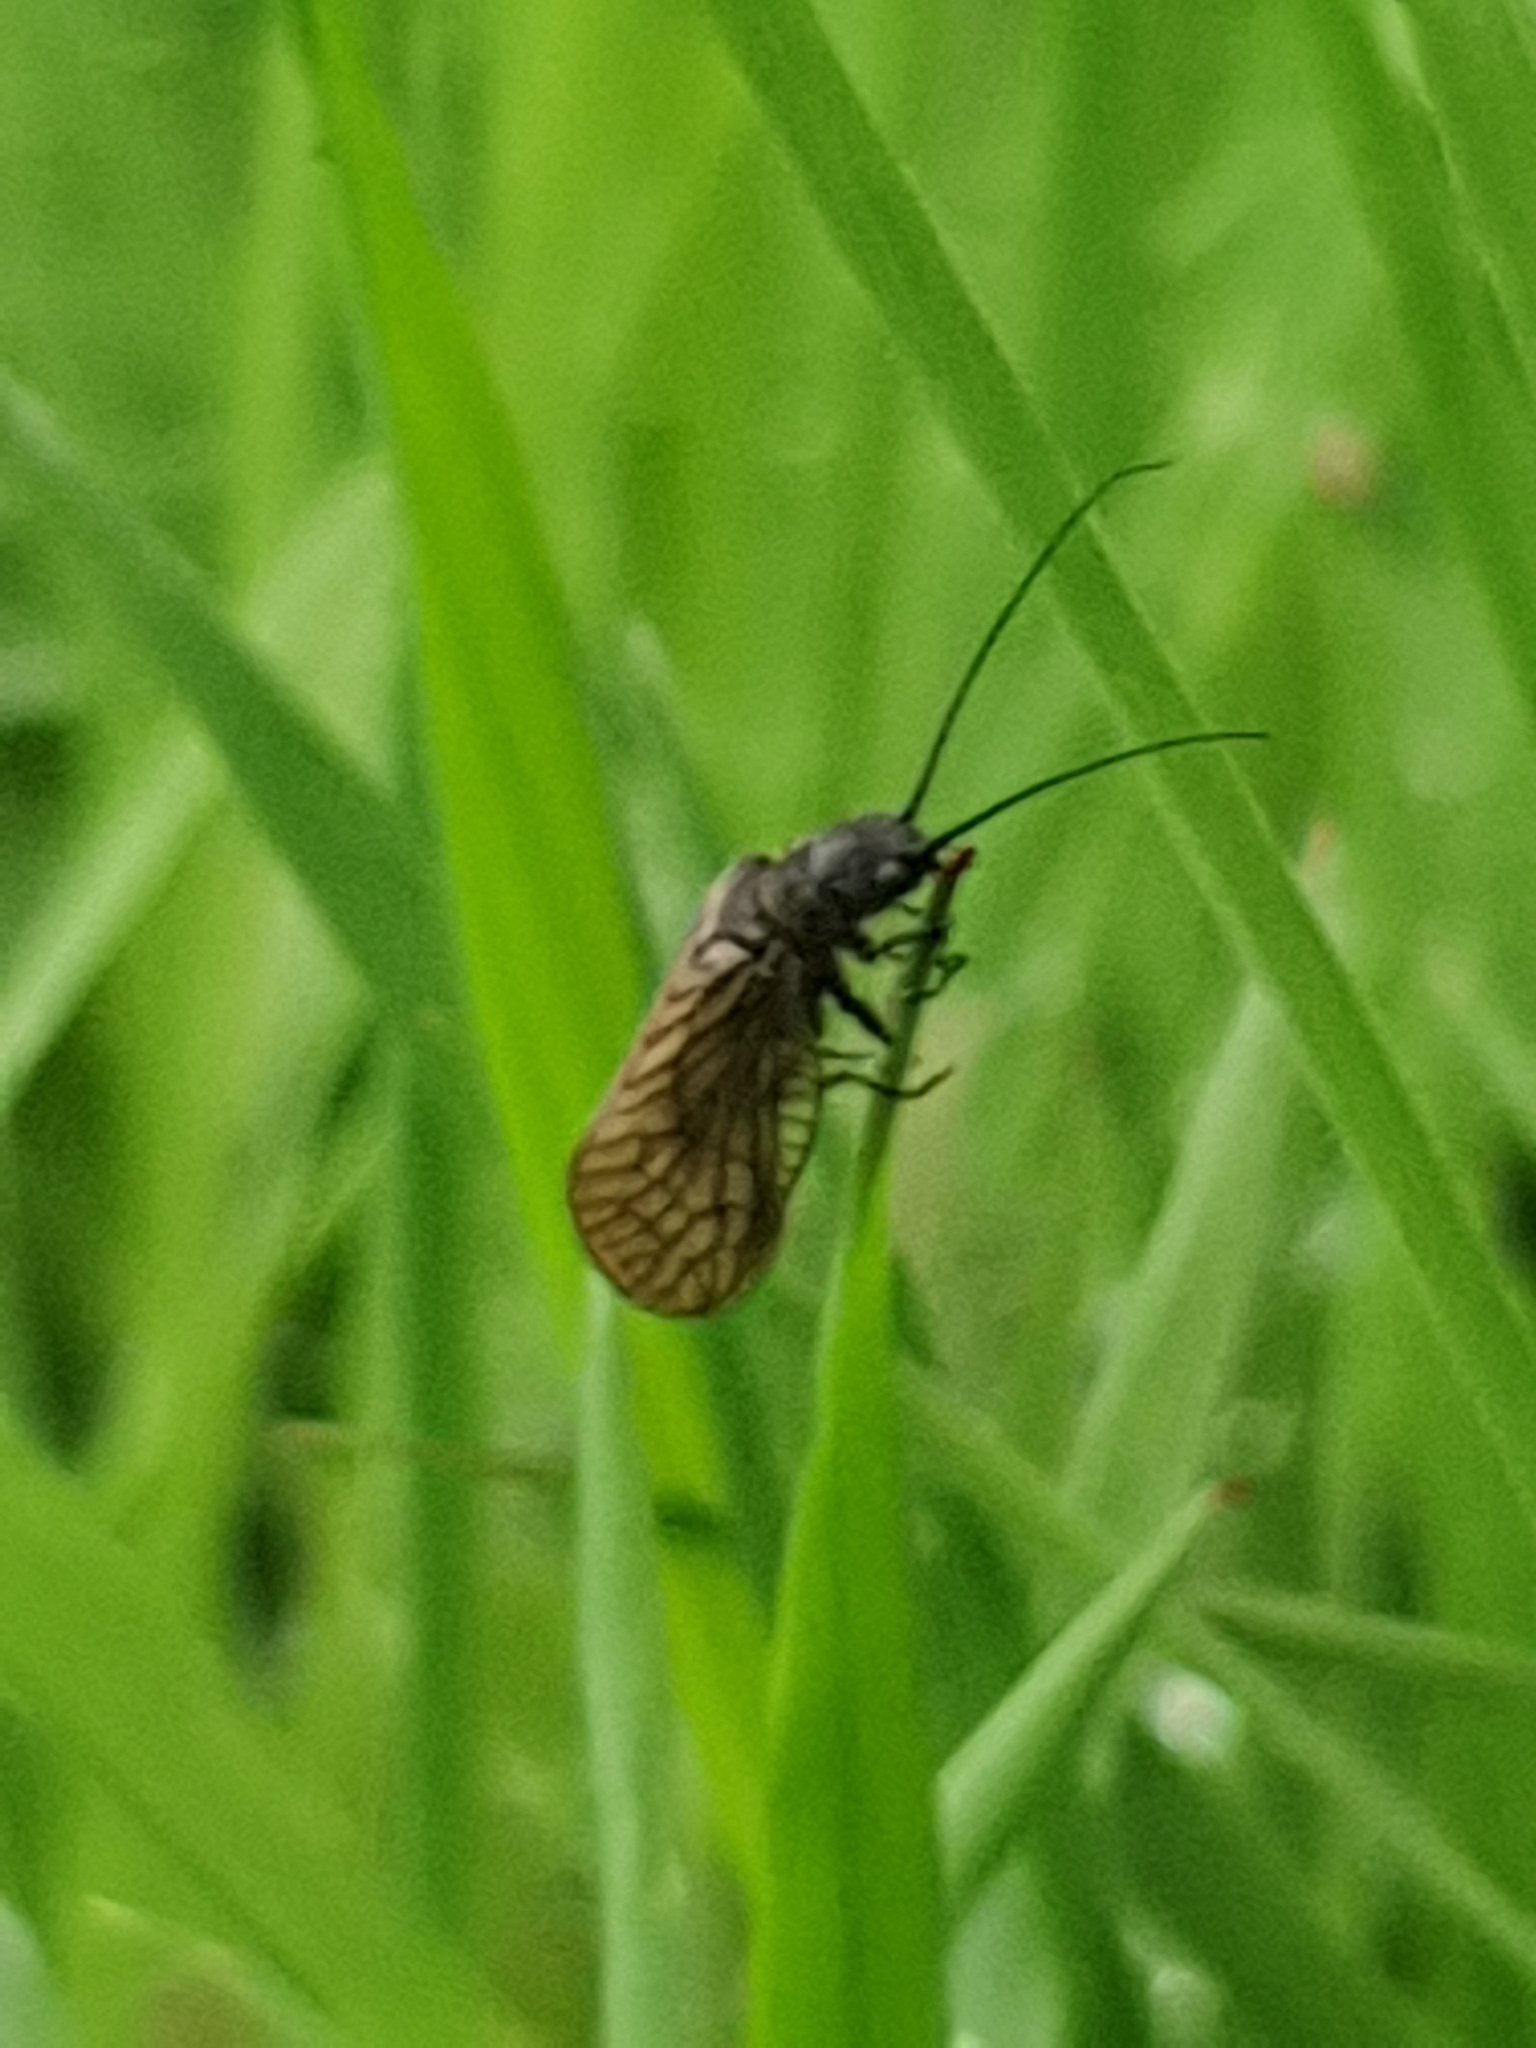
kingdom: Animalia
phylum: Arthropoda
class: Insecta
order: Megaloptera
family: Sialidae
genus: Sialis
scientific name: Sialis
